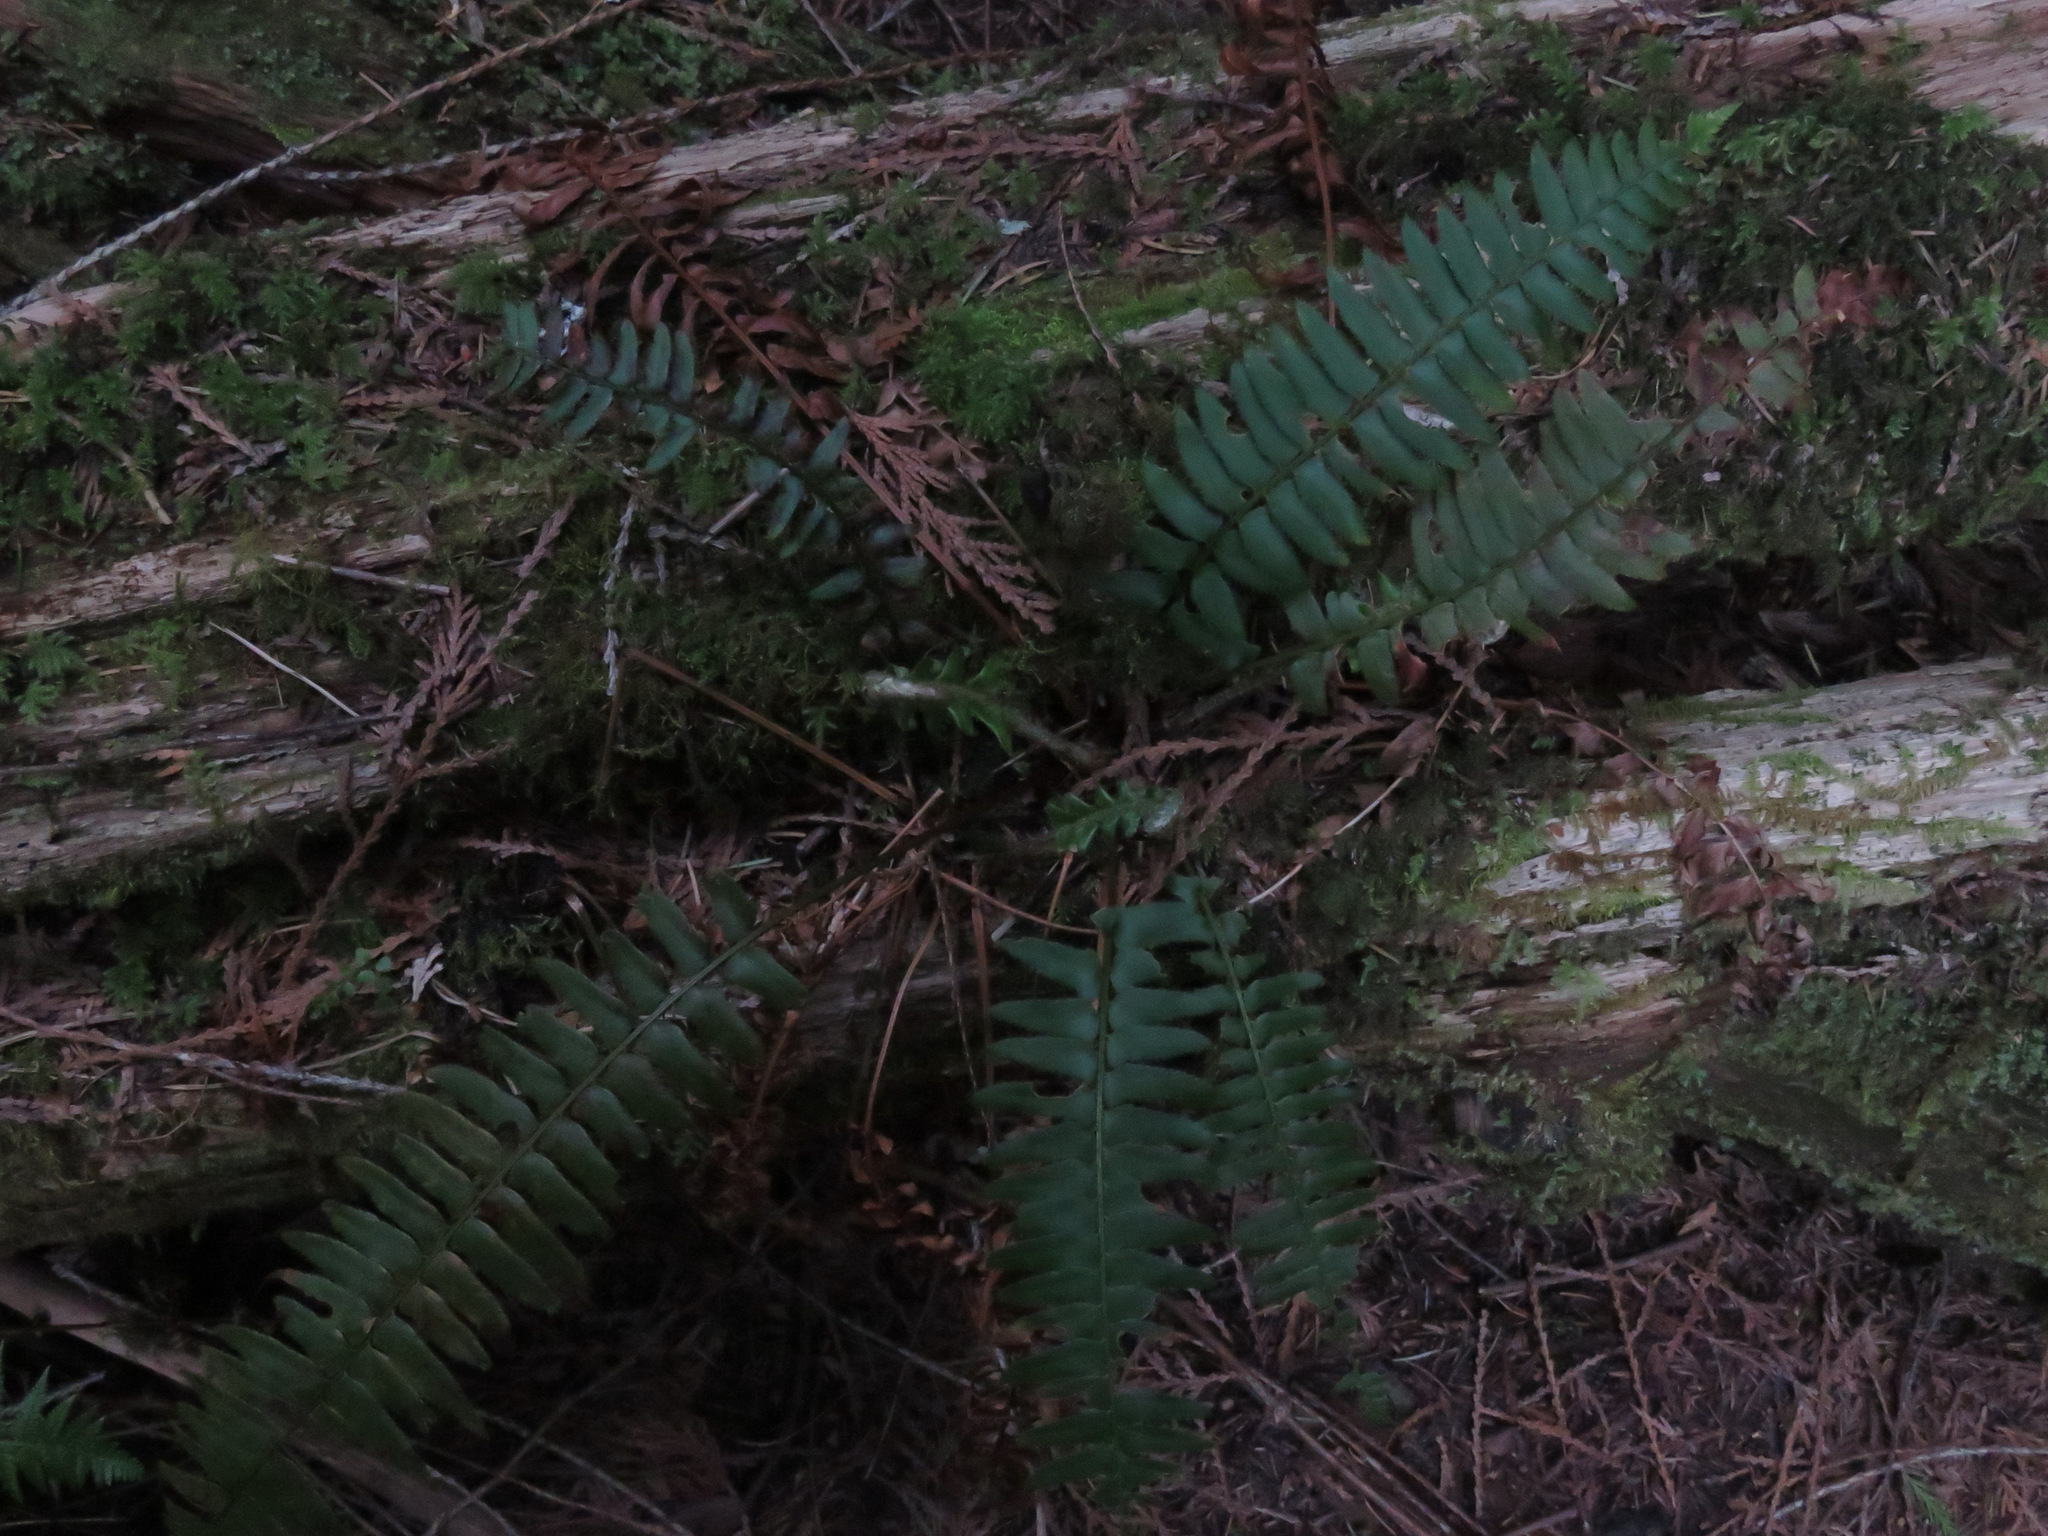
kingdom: Plantae
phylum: Tracheophyta
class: Polypodiopsida
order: Polypodiales
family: Dryopteridaceae
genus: Polystichum
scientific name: Polystichum munitum
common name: Western sword-fern
